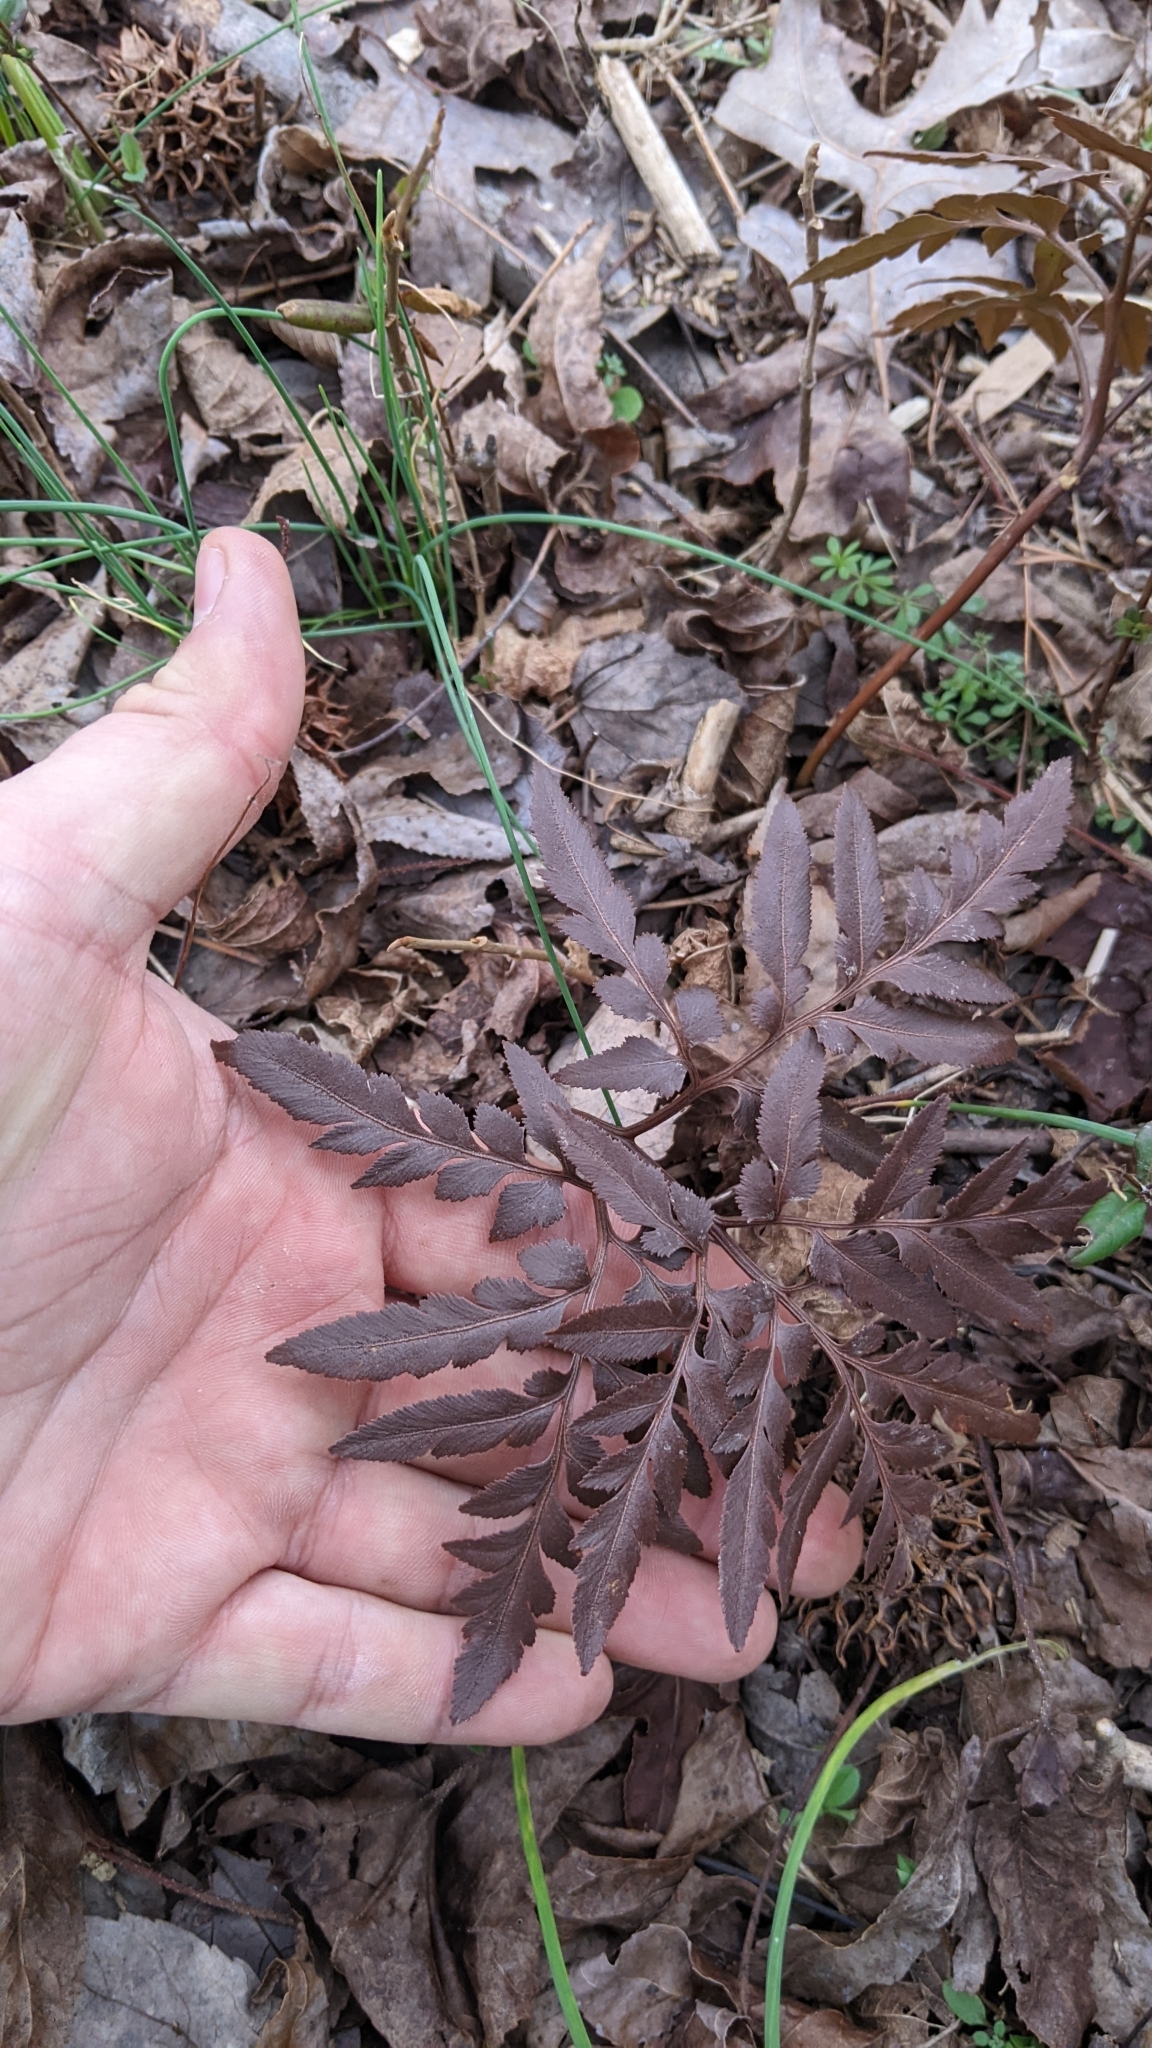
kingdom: Plantae
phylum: Tracheophyta
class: Polypodiopsida
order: Ophioglossales
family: Ophioglossaceae
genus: Sceptridium
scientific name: Sceptridium dissectum
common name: Cut-leaved grapefern
